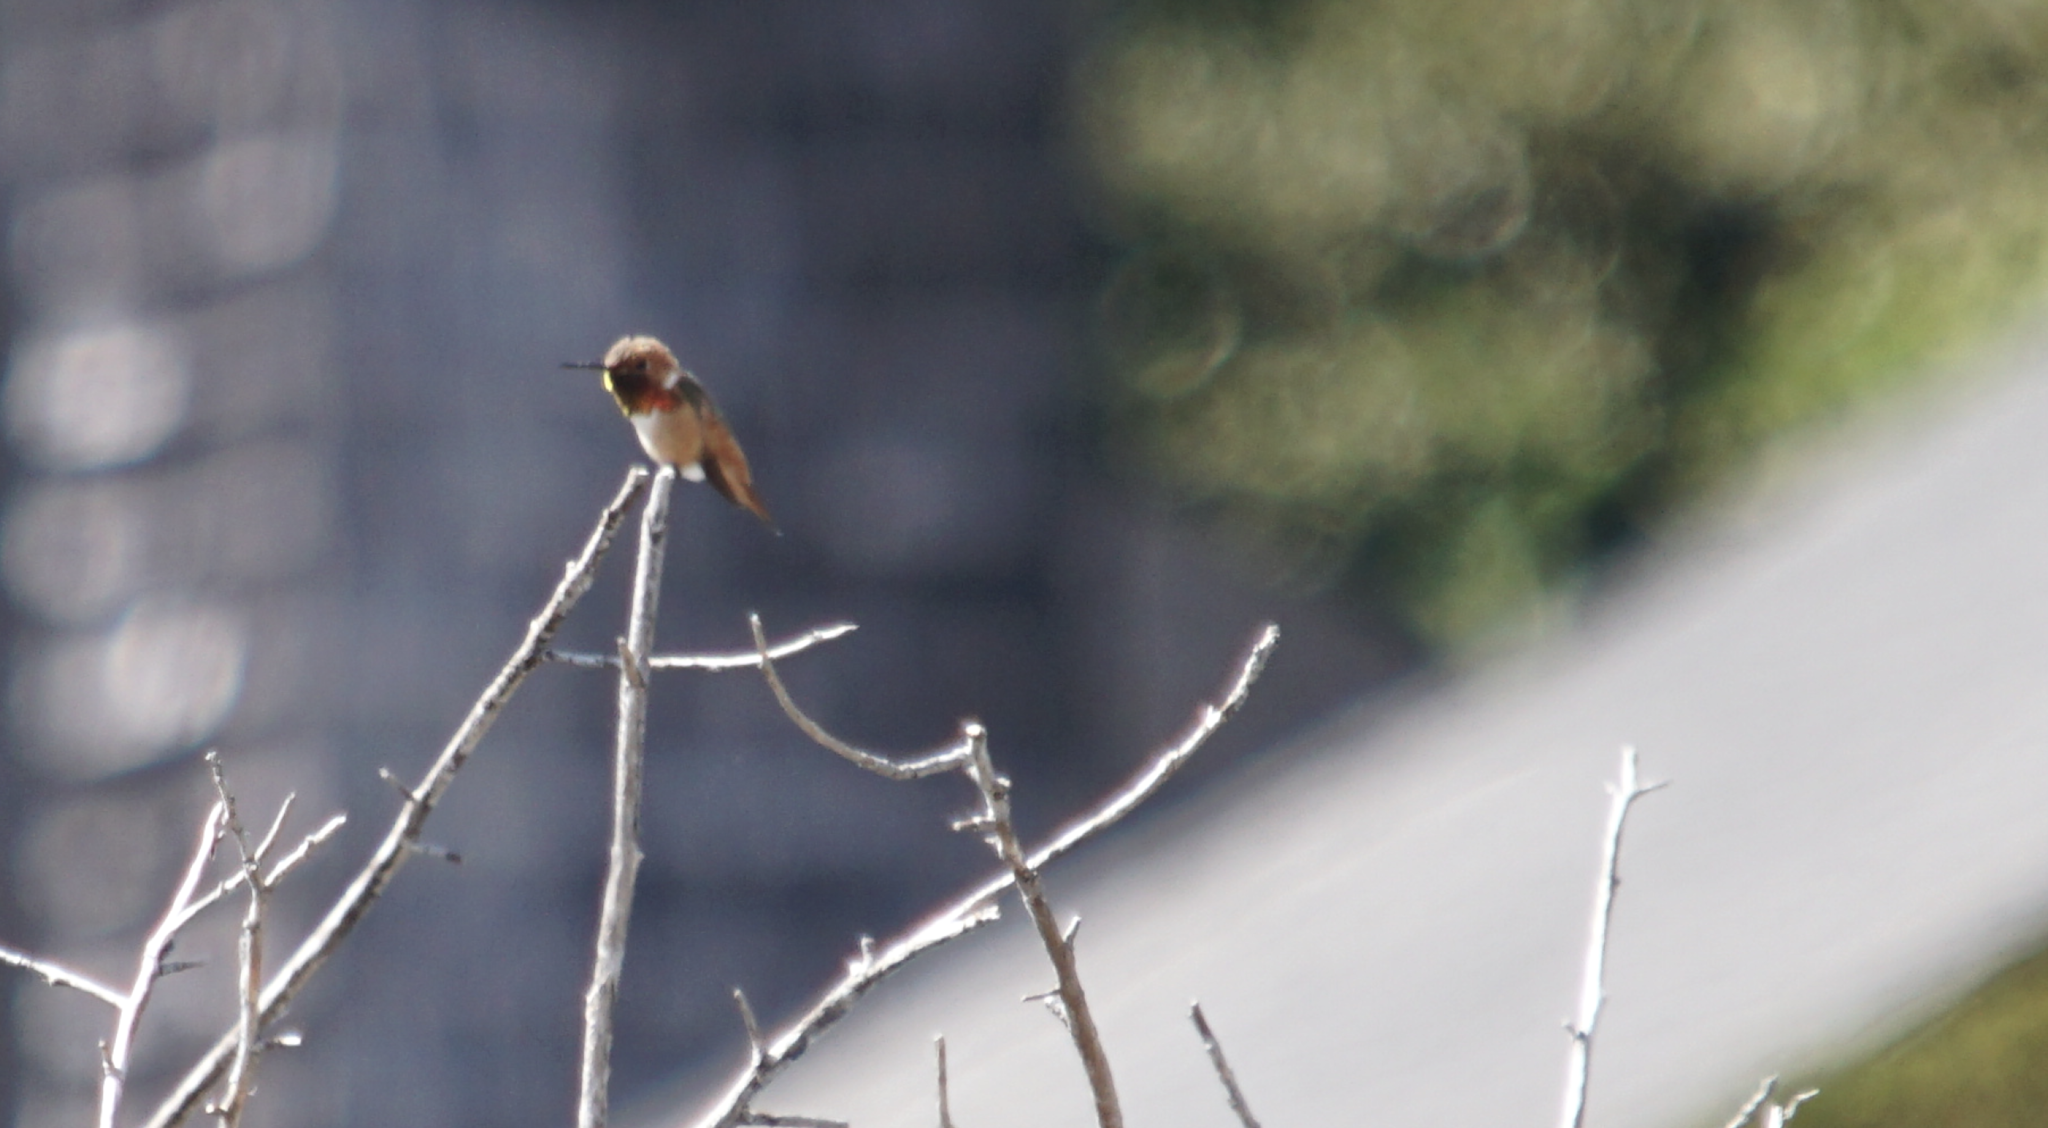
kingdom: Animalia
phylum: Chordata
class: Aves
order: Apodiformes
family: Trochilidae
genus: Selasphorus
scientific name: Selasphorus rufus
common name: Rufous hummingbird
